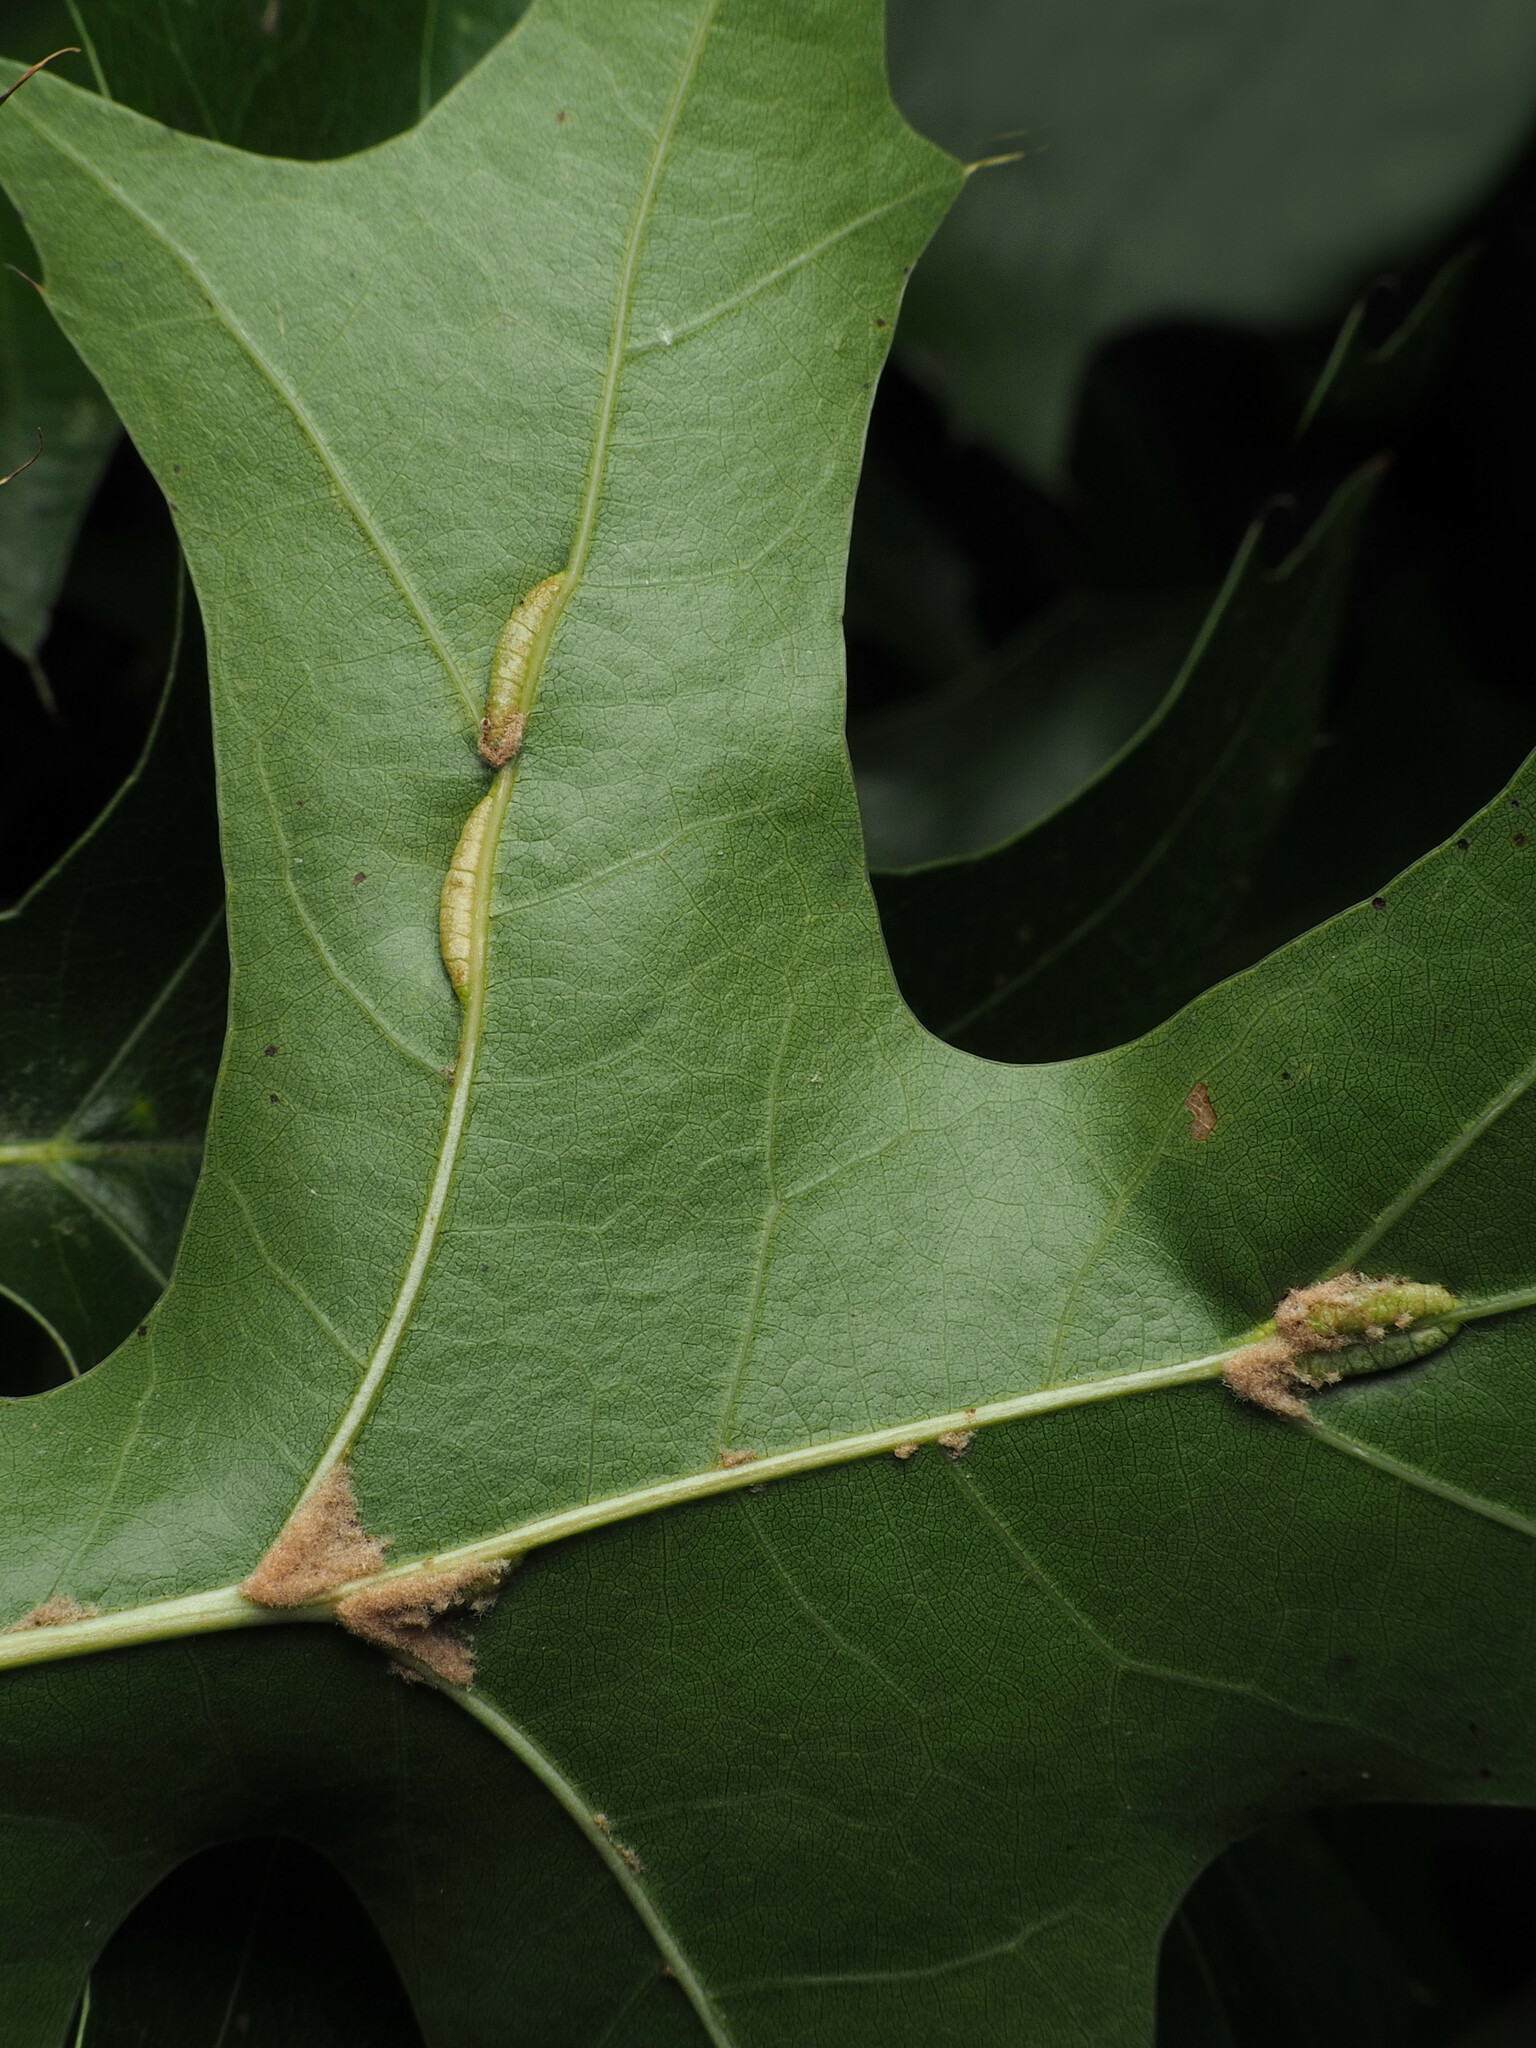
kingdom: Animalia
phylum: Arthropoda
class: Insecta
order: Diptera
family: Cecidomyiidae
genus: Macrodiplosis
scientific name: Macrodiplosis q-orucum
